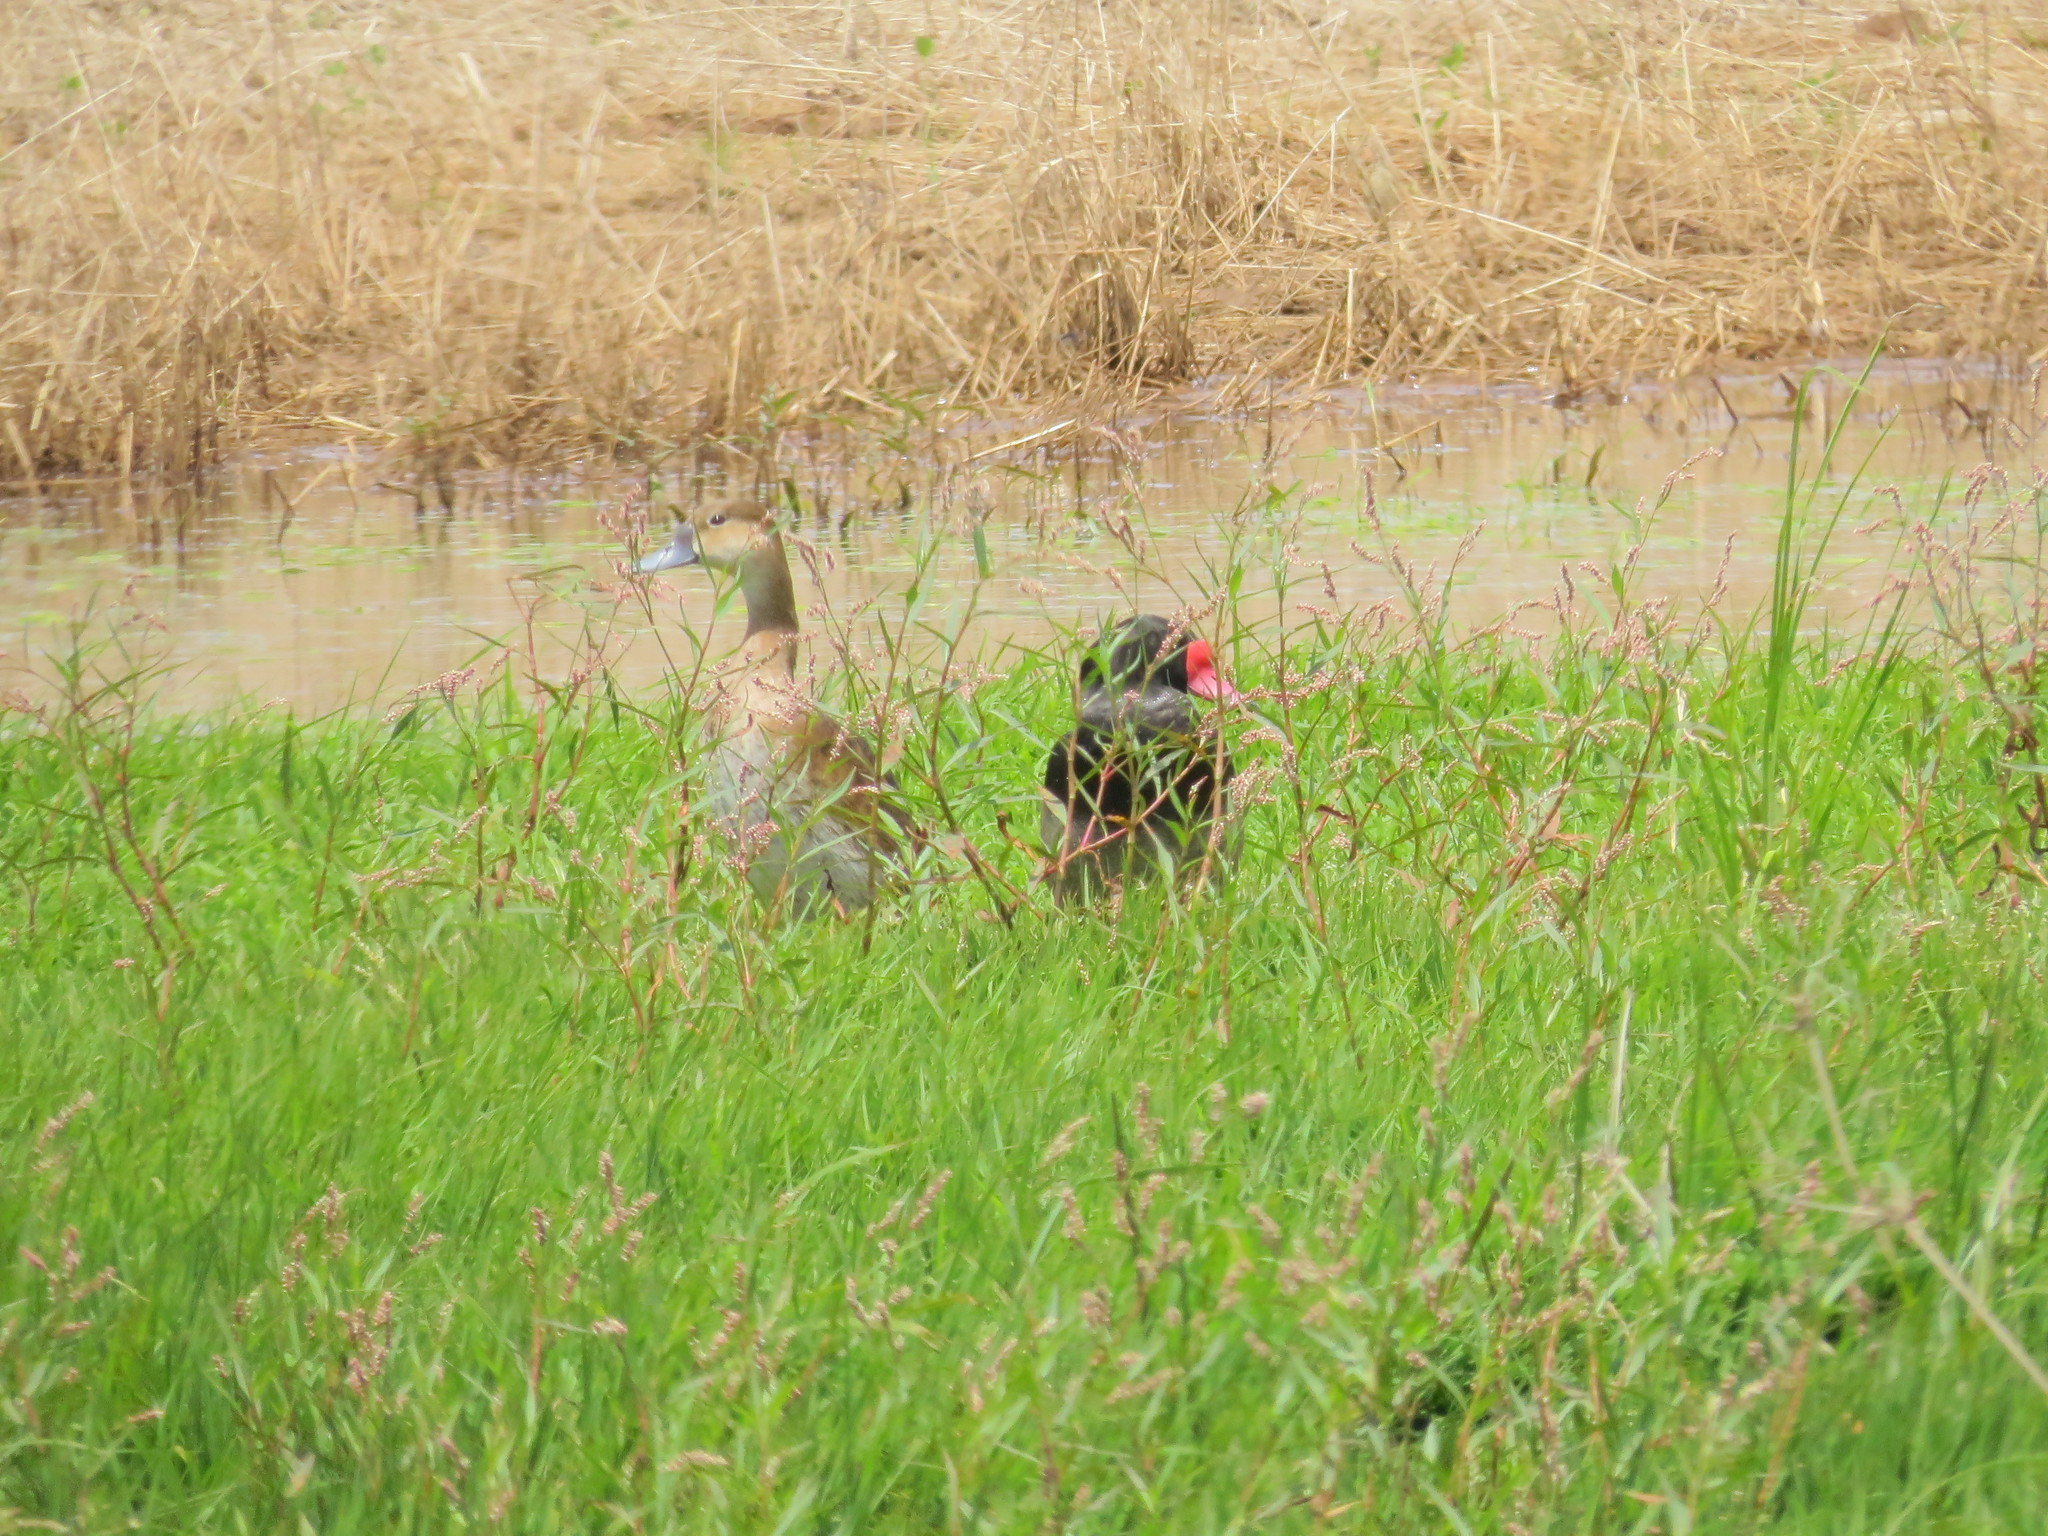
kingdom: Animalia
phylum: Chordata
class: Aves
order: Anseriformes
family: Anatidae
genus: Netta
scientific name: Netta peposaca
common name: Rosy-billed pochard
